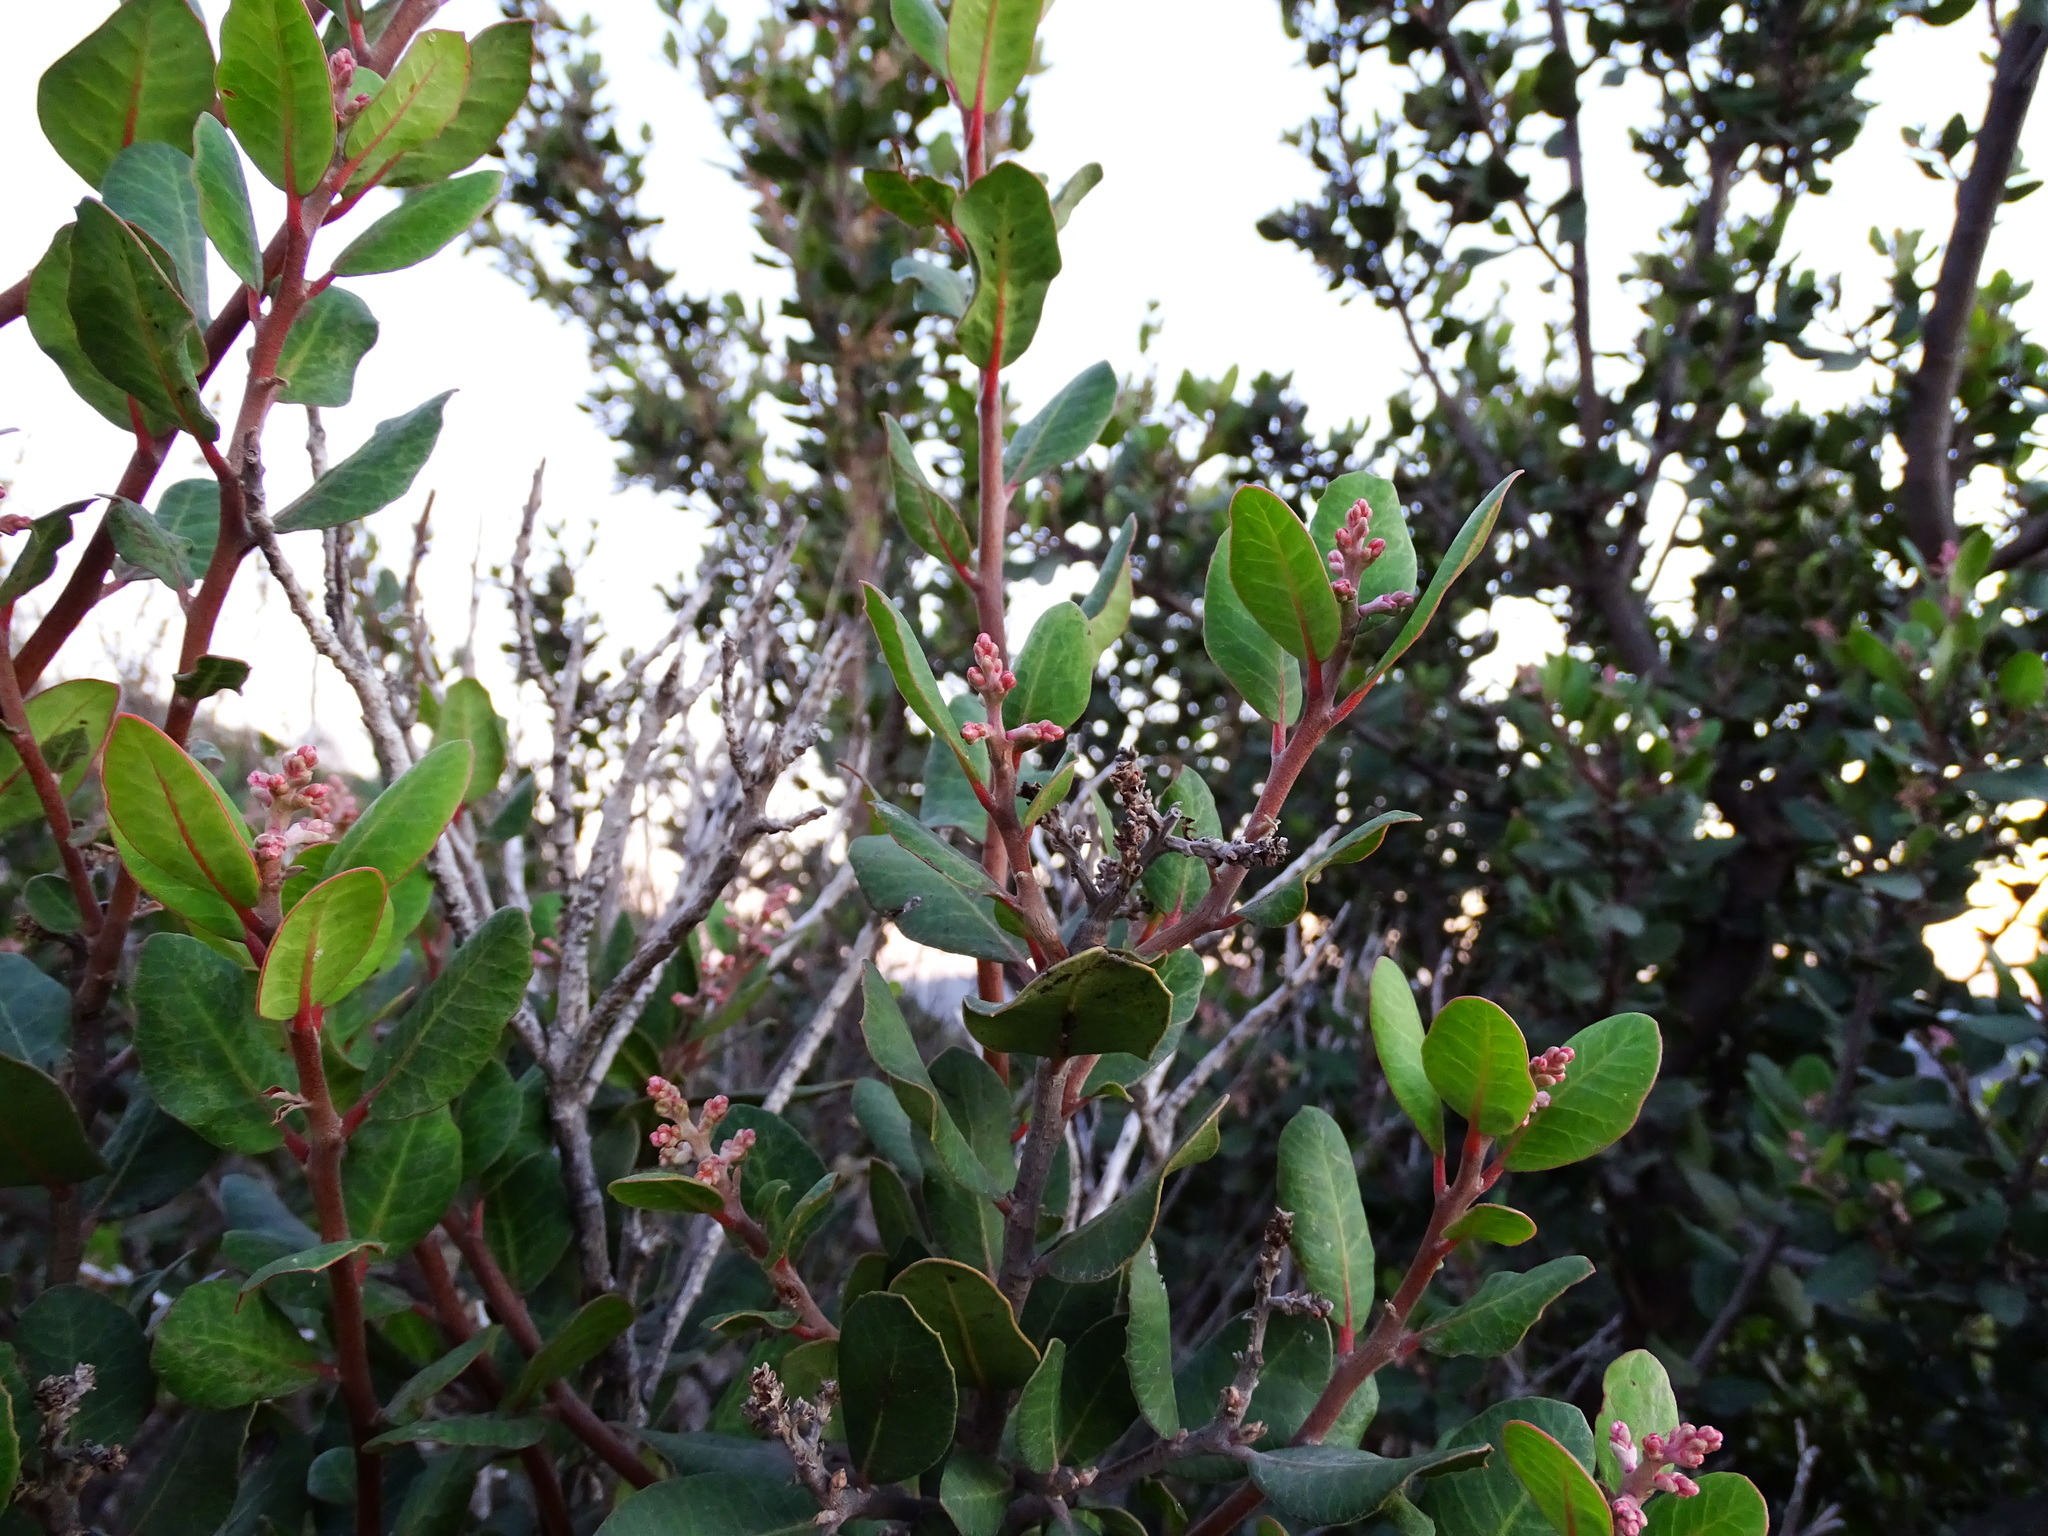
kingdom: Plantae
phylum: Tracheophyta
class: Magnoliopsida
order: Sapindales
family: Anacardiaceae
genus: Rhus
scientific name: Rhus integrifolia
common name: Lemonade sumac
